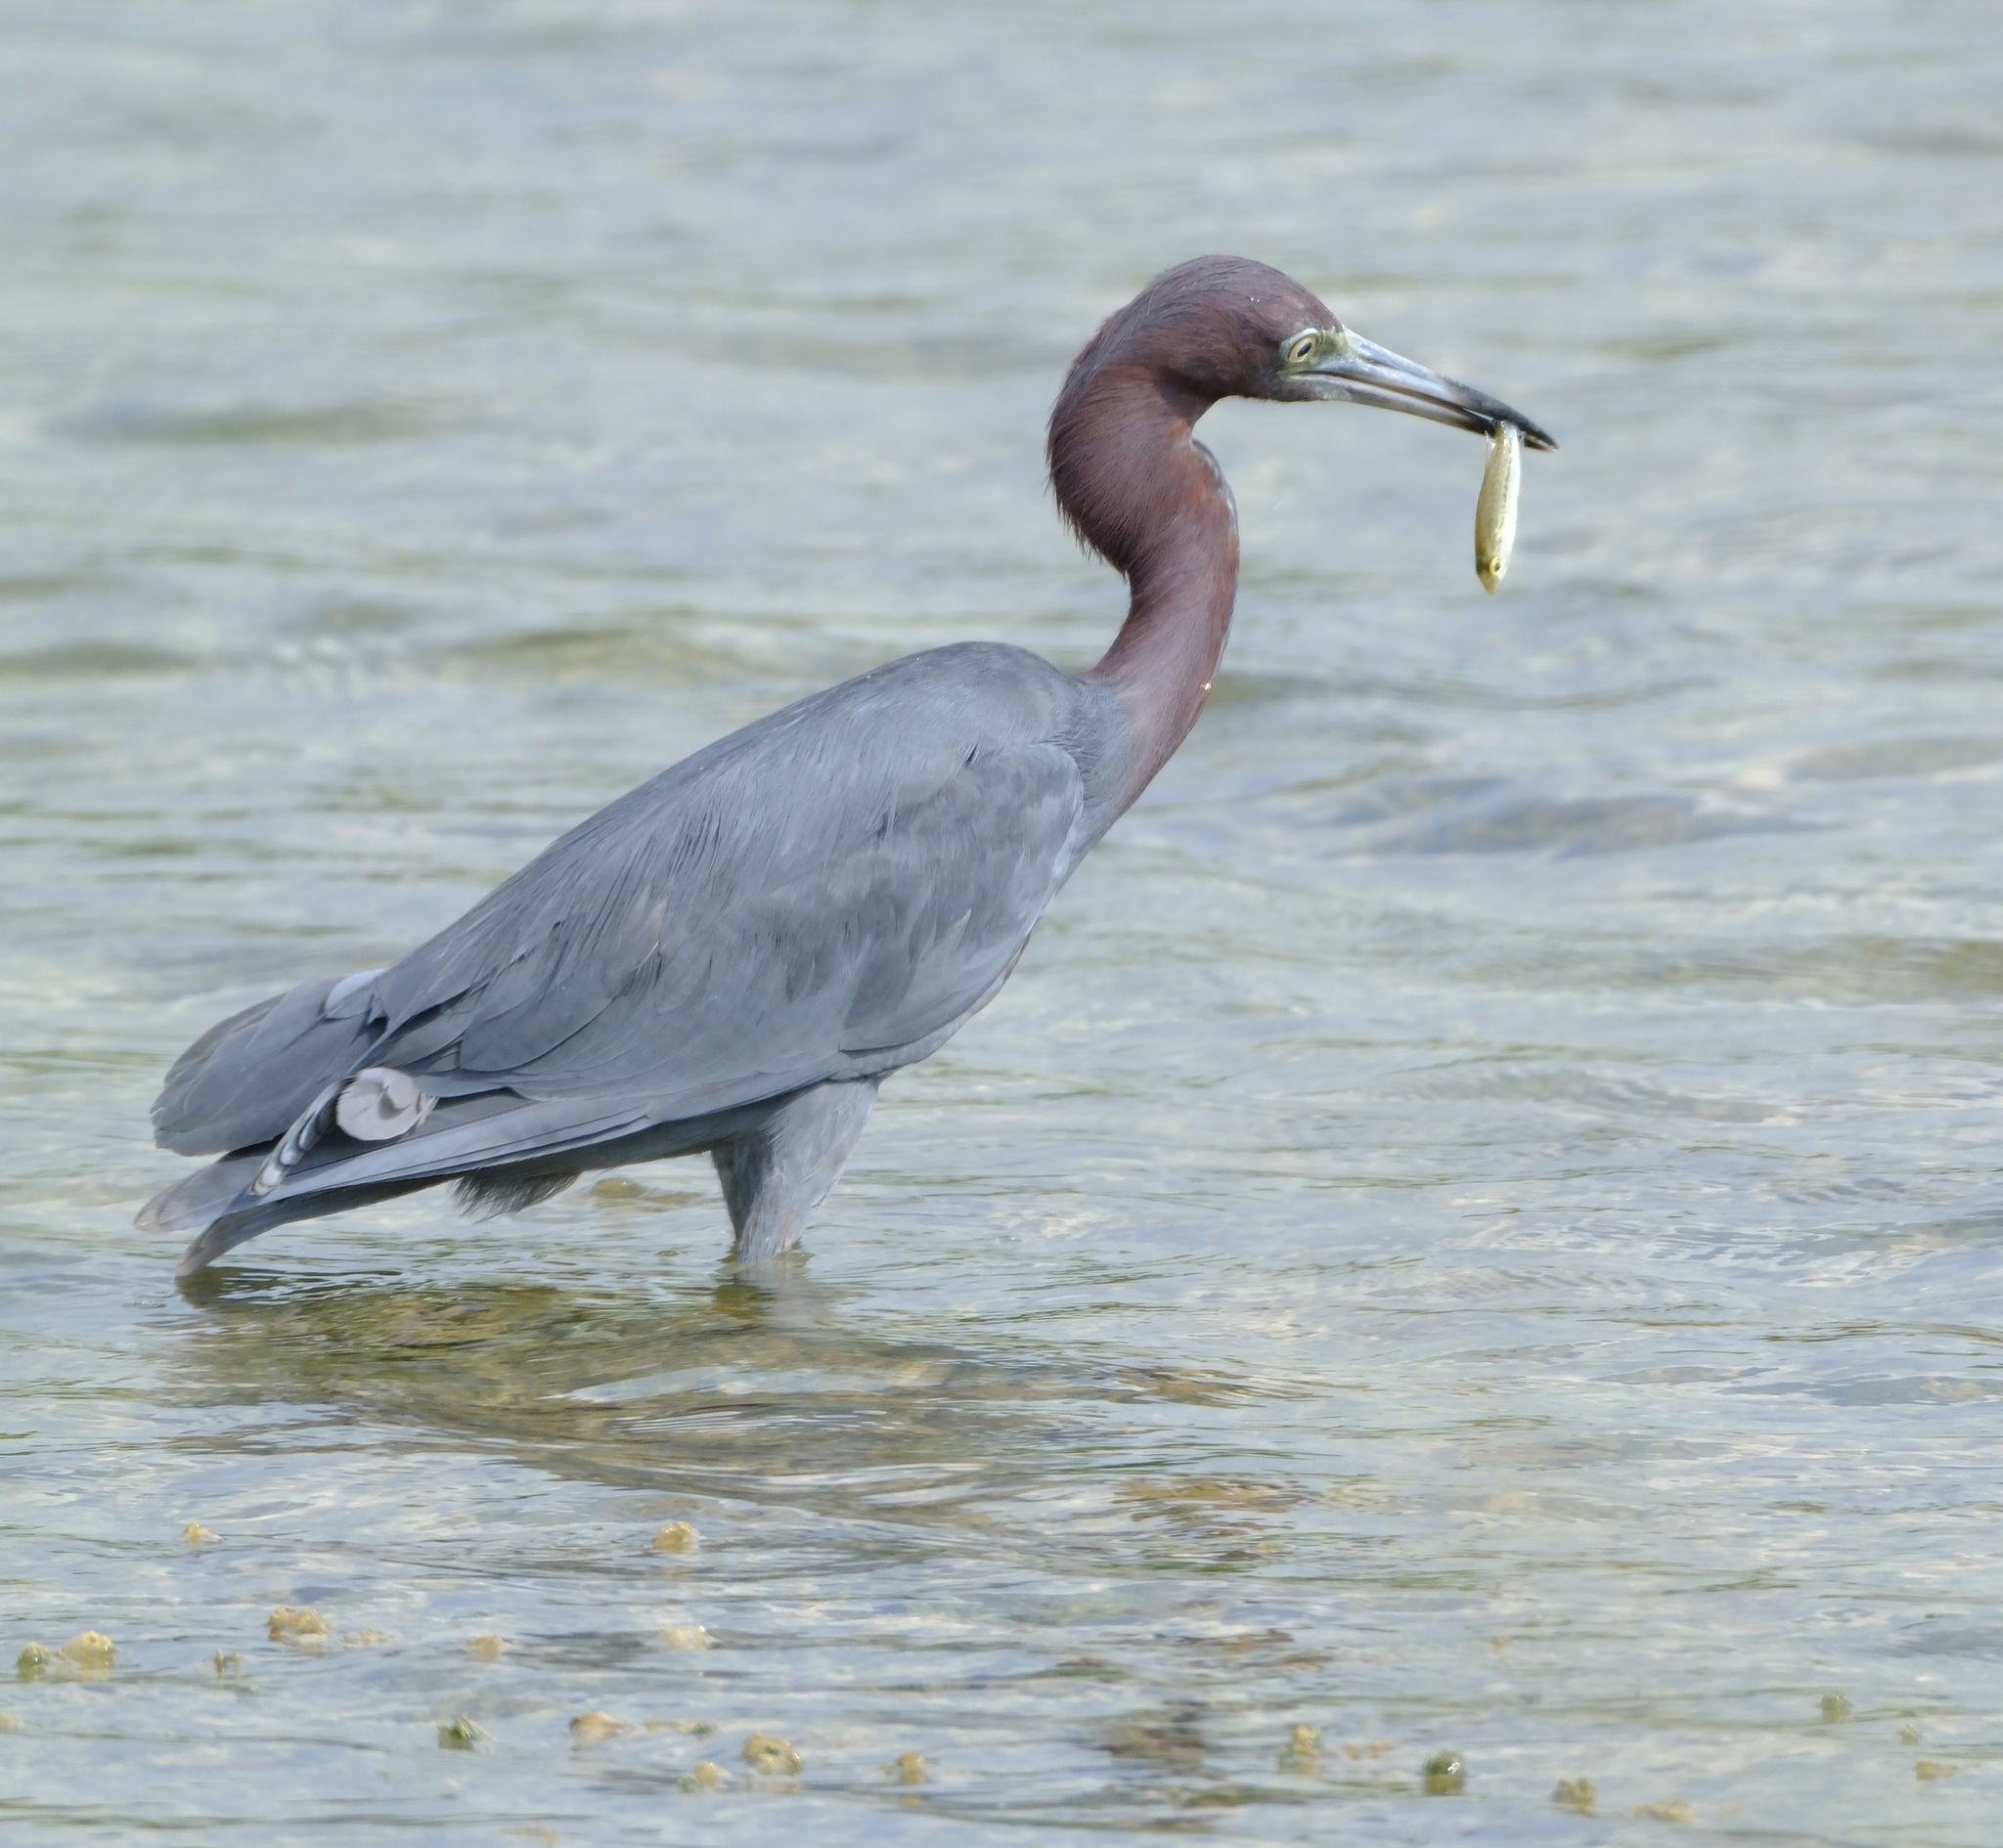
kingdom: Animalia
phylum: Chordata
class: Aves
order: Pelecaniformes
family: Ardeidae
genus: Egretta
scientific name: Egretta caerulea
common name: Little blue heron
